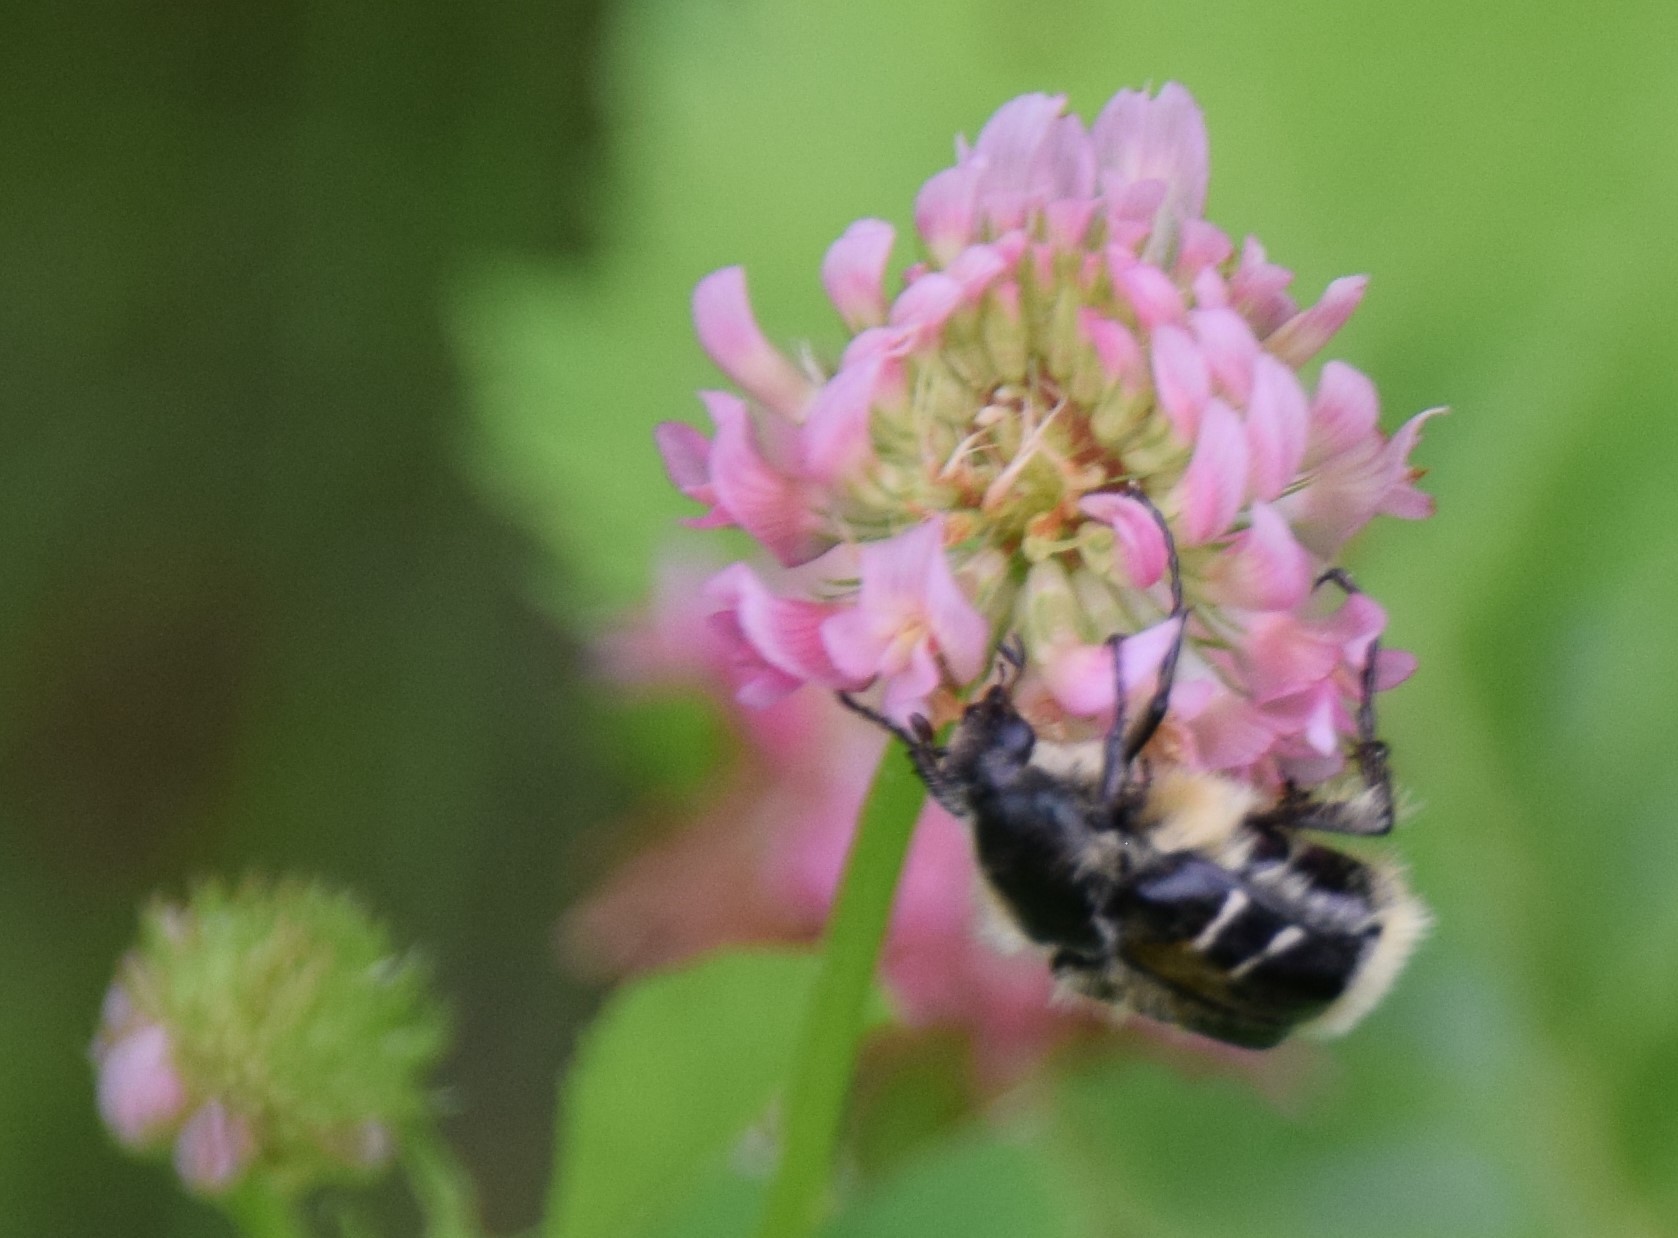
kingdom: Animalia
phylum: Arthropoda
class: Insecta
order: Coleoptera
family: Scarabaeidae
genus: Trichiotinus
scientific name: Trichiotinus assimilis
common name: Bee-mimic beetle
